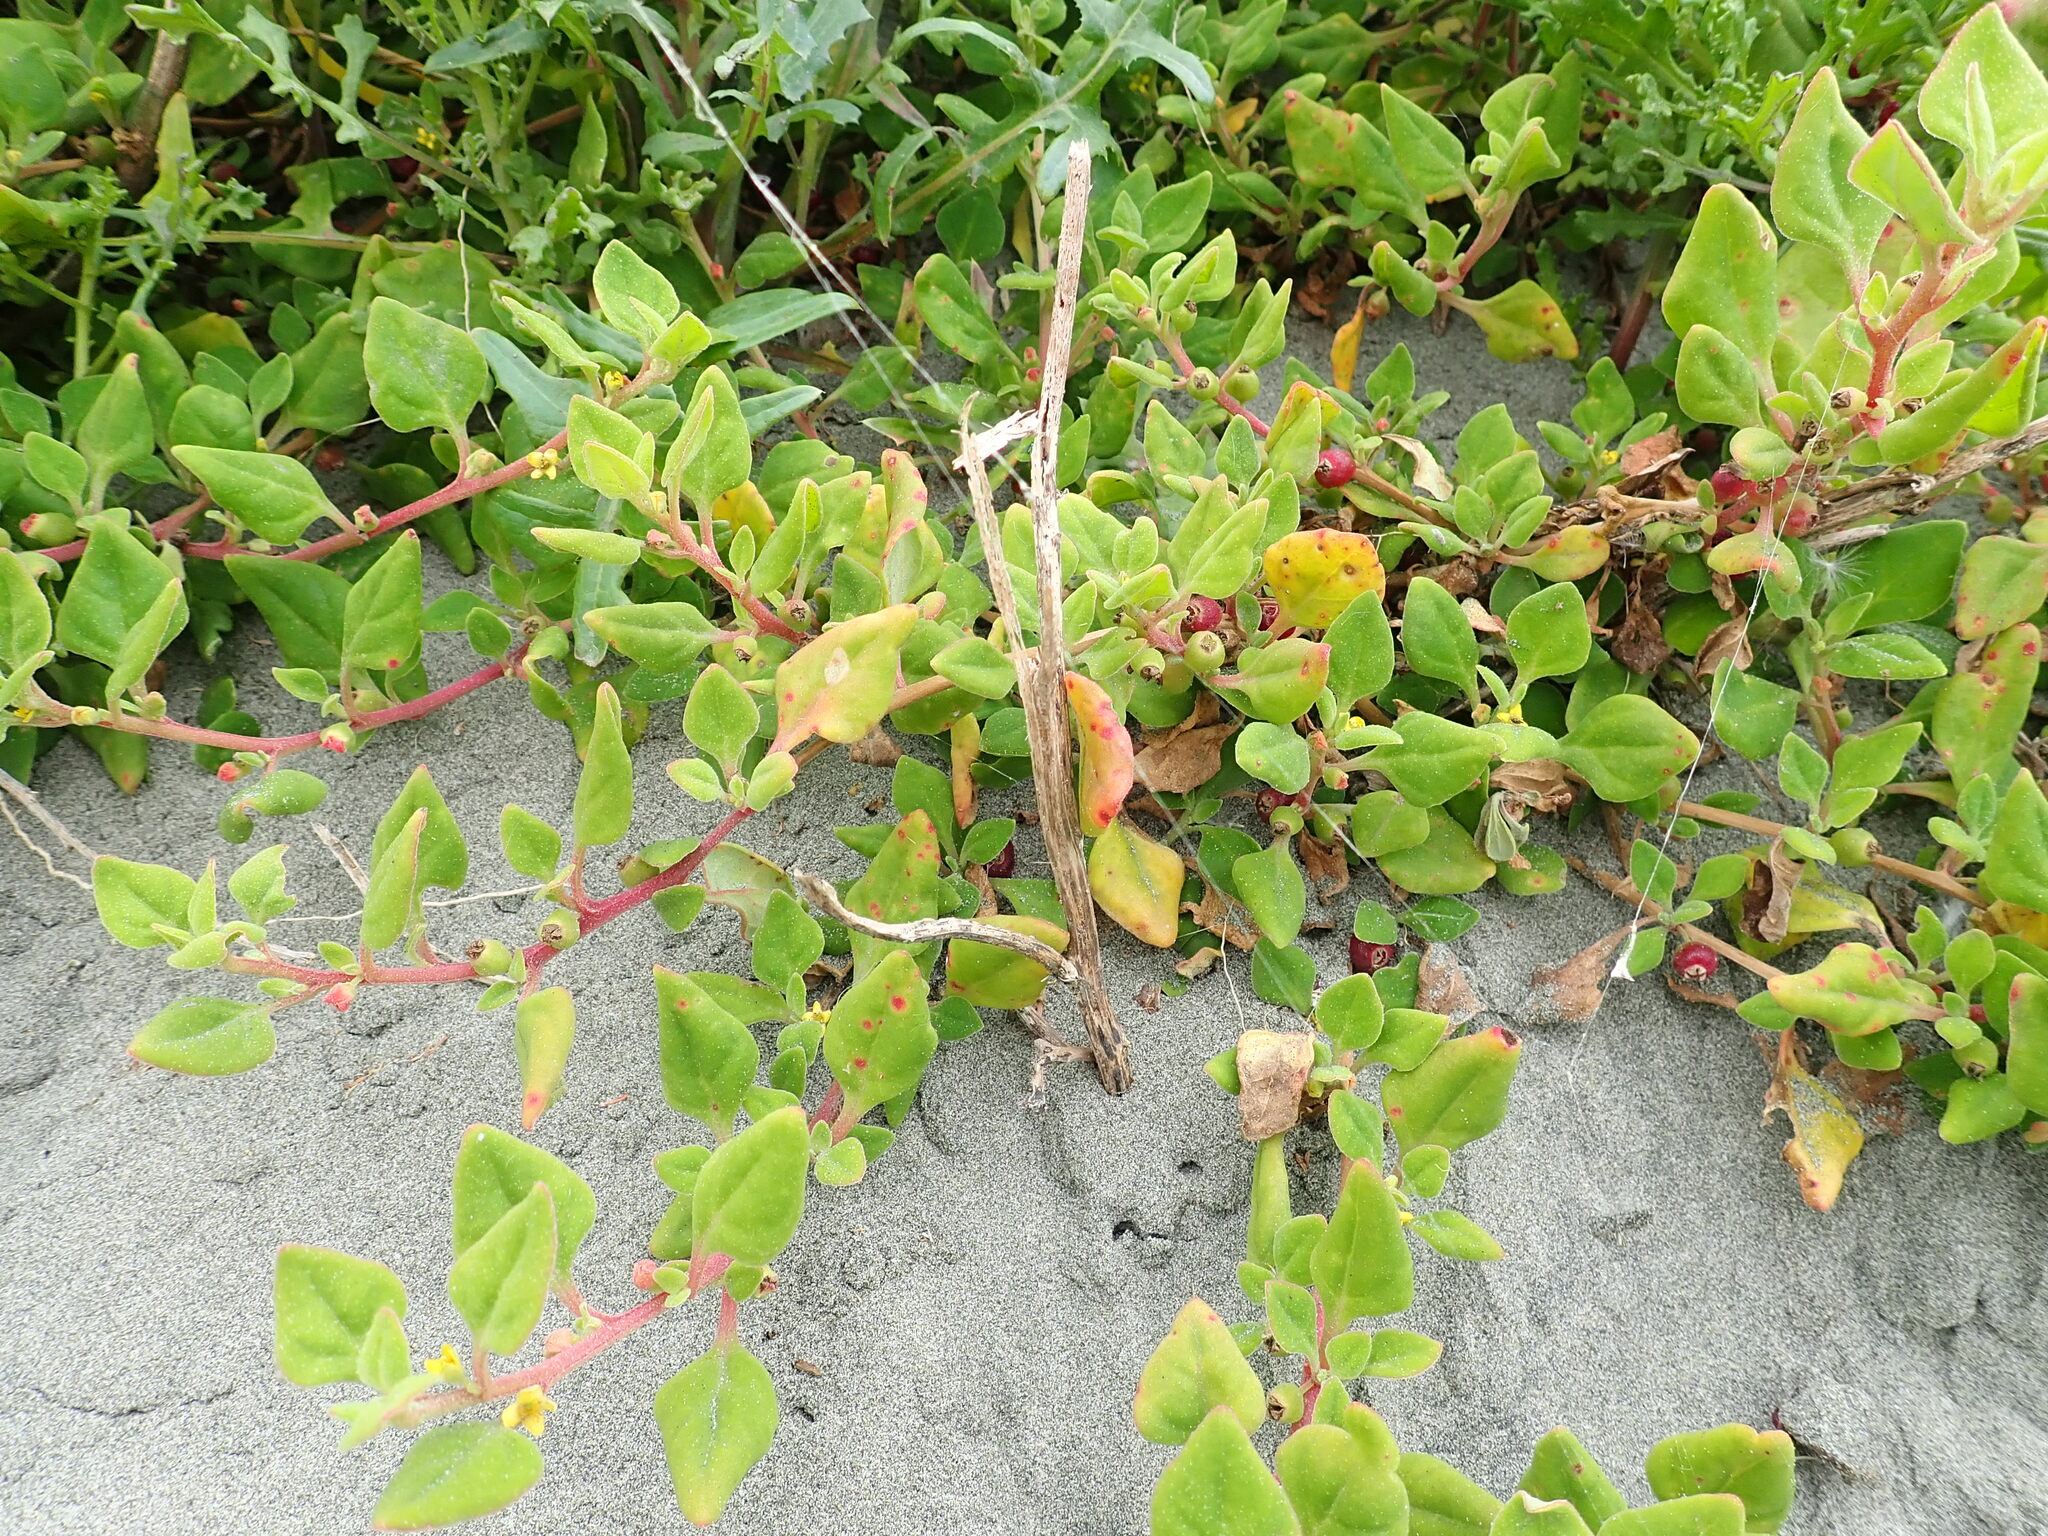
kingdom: Plantae
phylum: Tracheophyta
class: Magnoliopsida
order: Caryophyllales
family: Aizoaceae
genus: Tetragonia
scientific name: Tetragonia implexicoma
